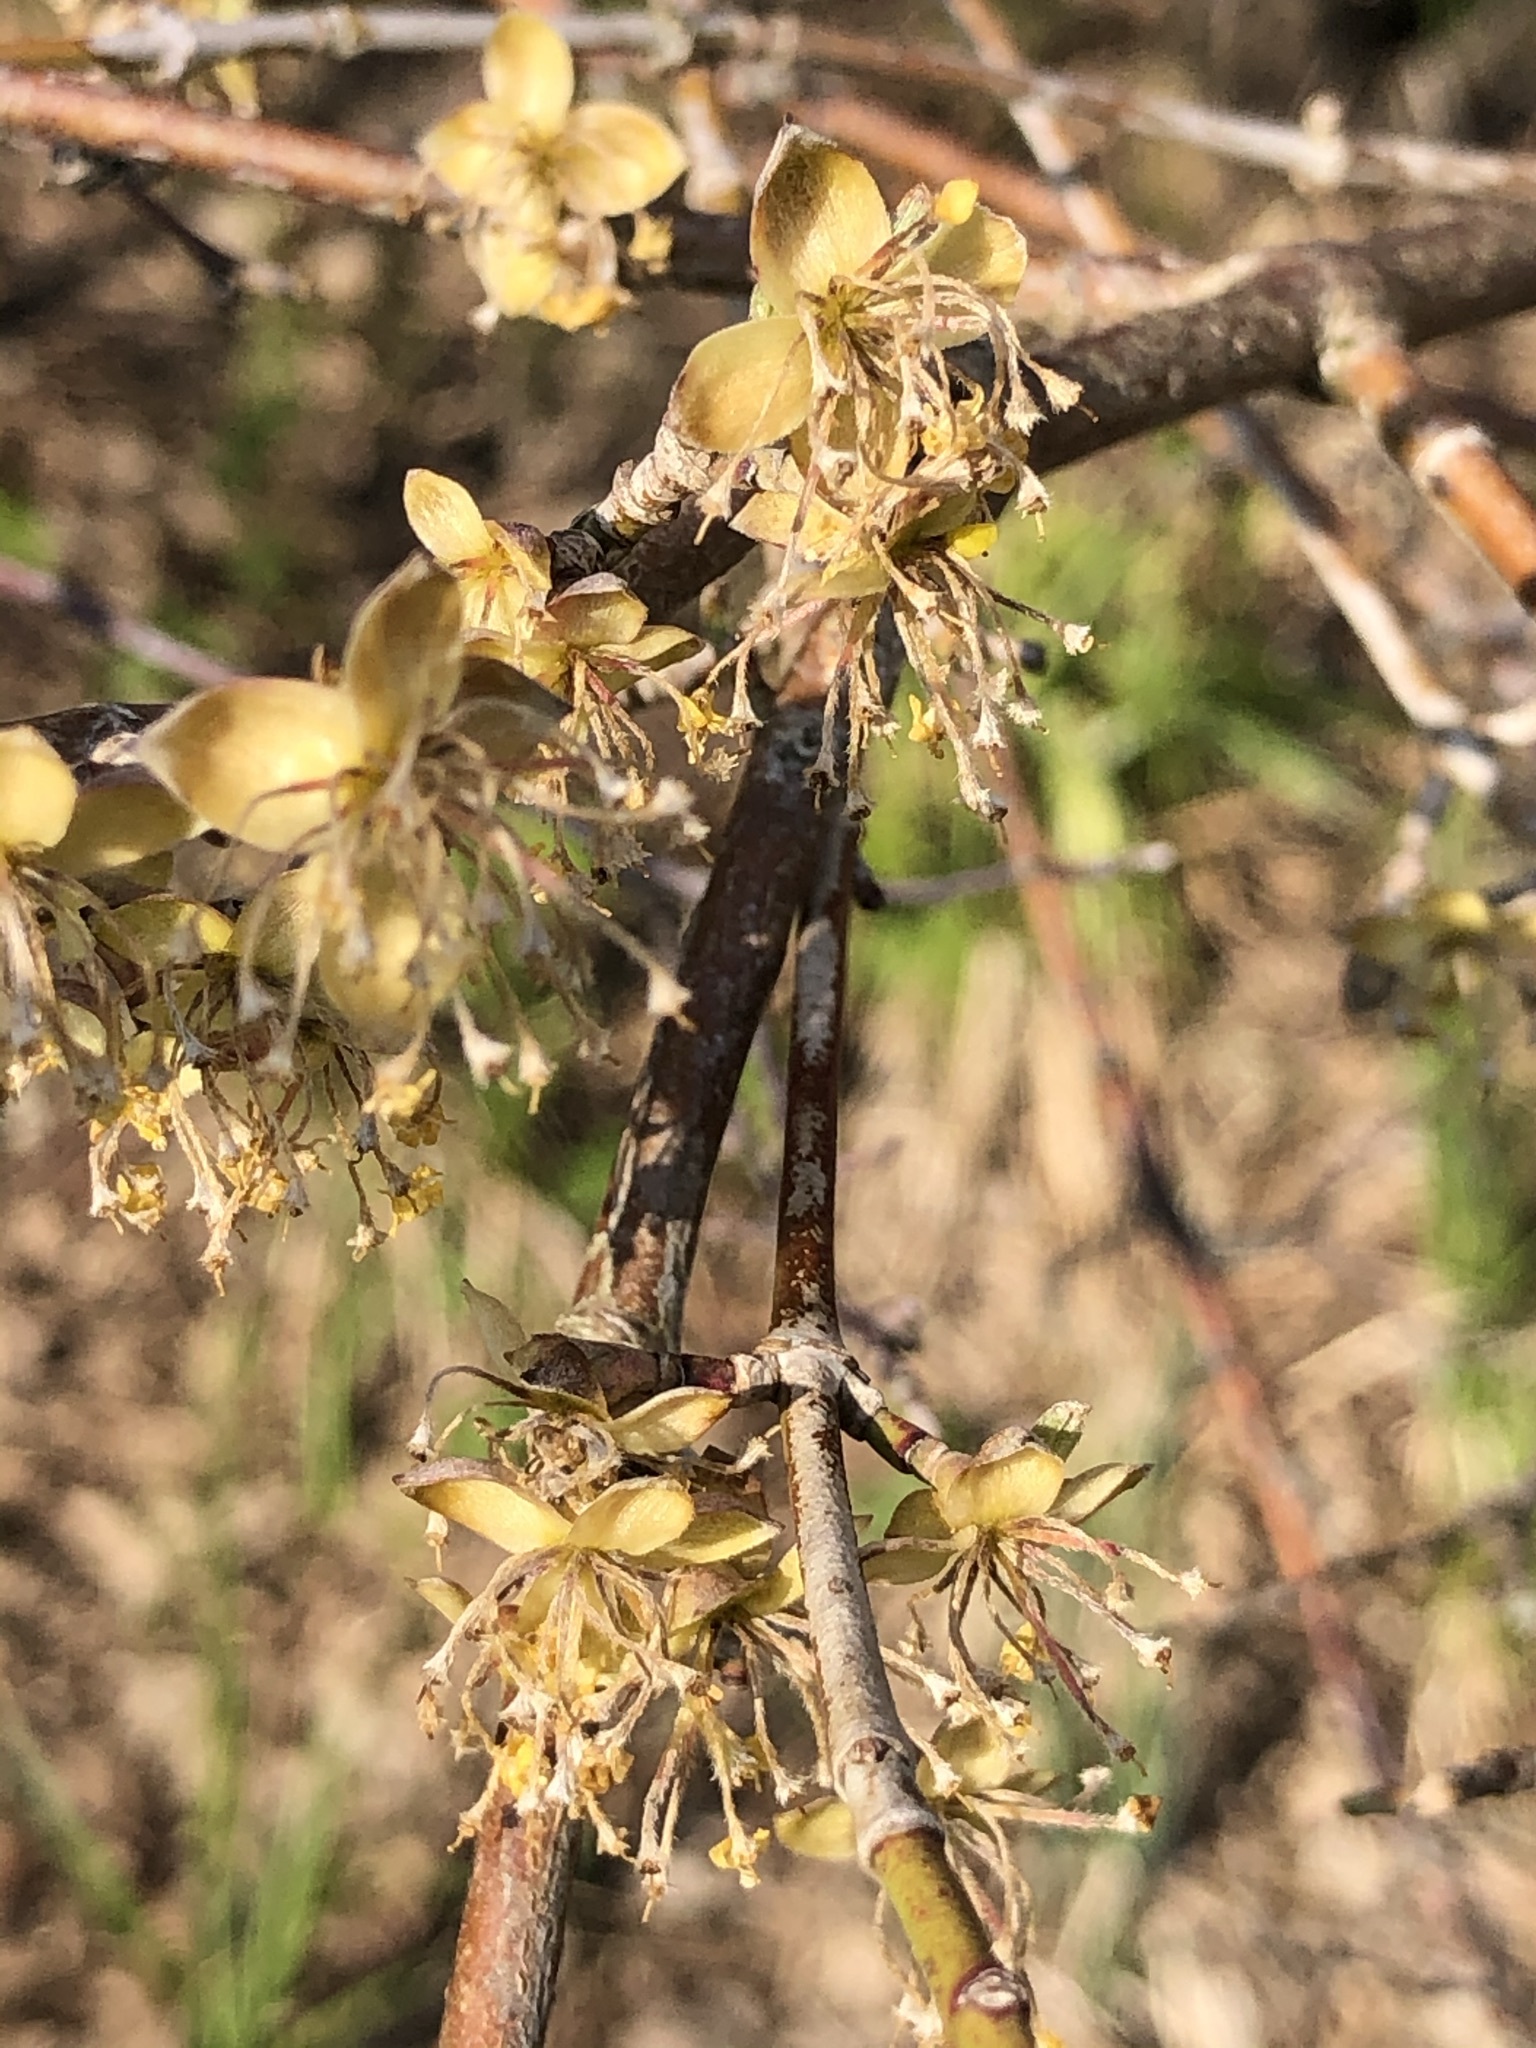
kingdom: Plantae
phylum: Tracheophyta
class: Magnoliopsida
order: Cornales
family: Cornaceae
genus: Cornus
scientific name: Cornus mas
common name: Cornelian-cherry
